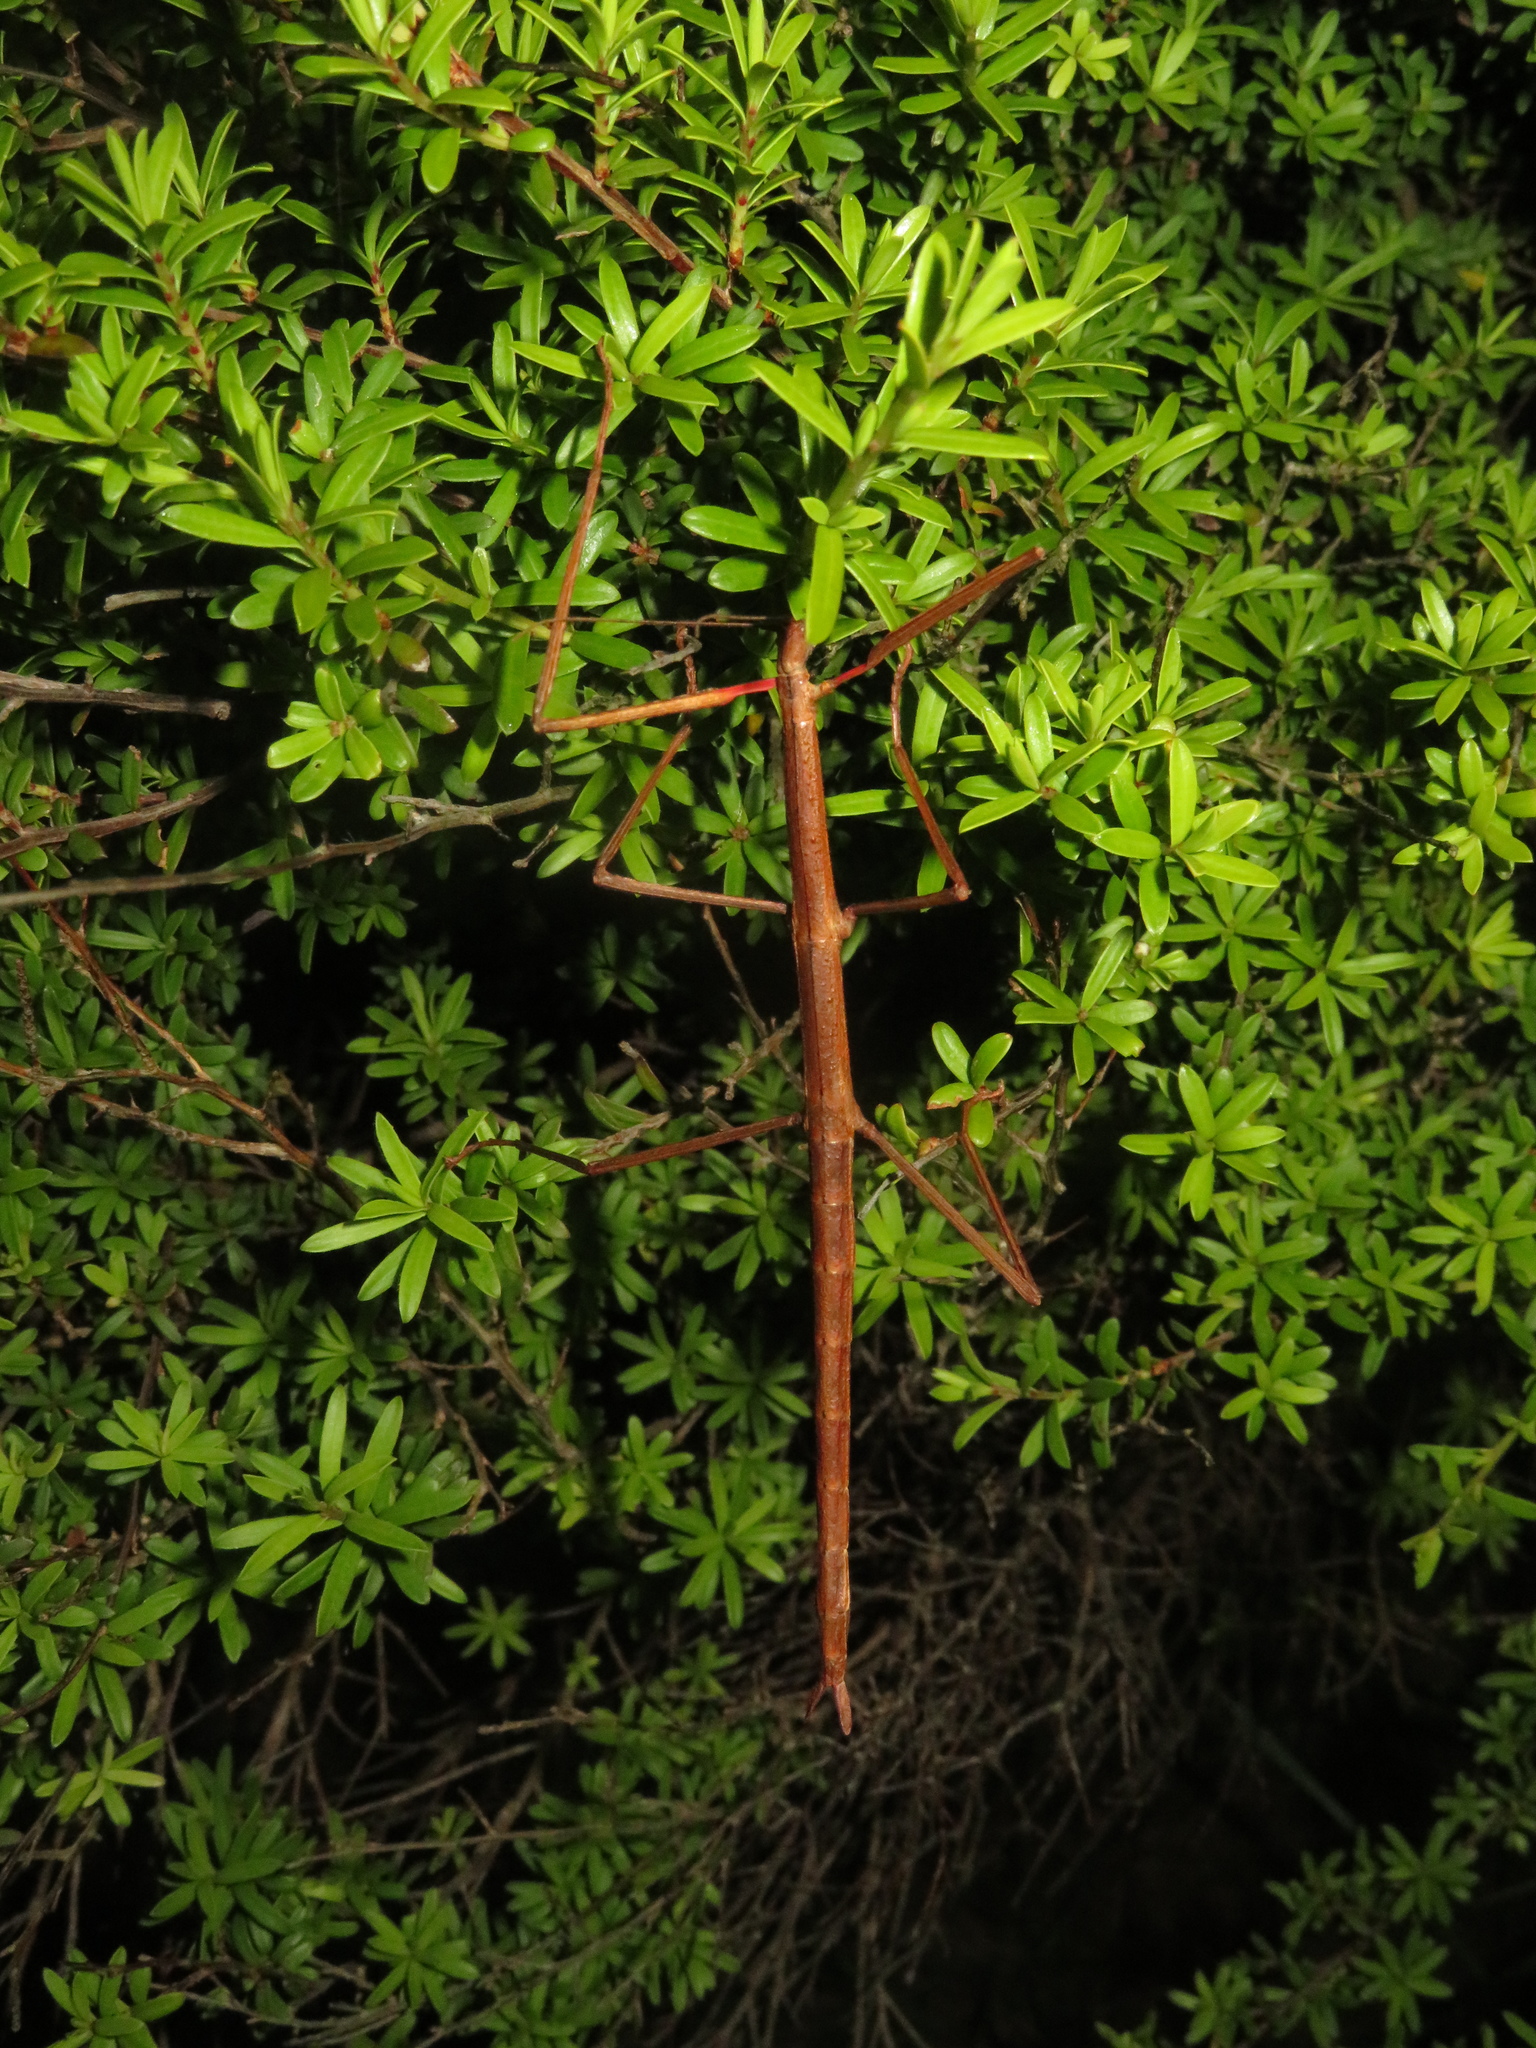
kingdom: Animalia
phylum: Arthropoda
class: Insecta
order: Phasmida
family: Phasmatidae
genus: Clitarchus
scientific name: Clitarchus hookeri
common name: Smooth stick insect
